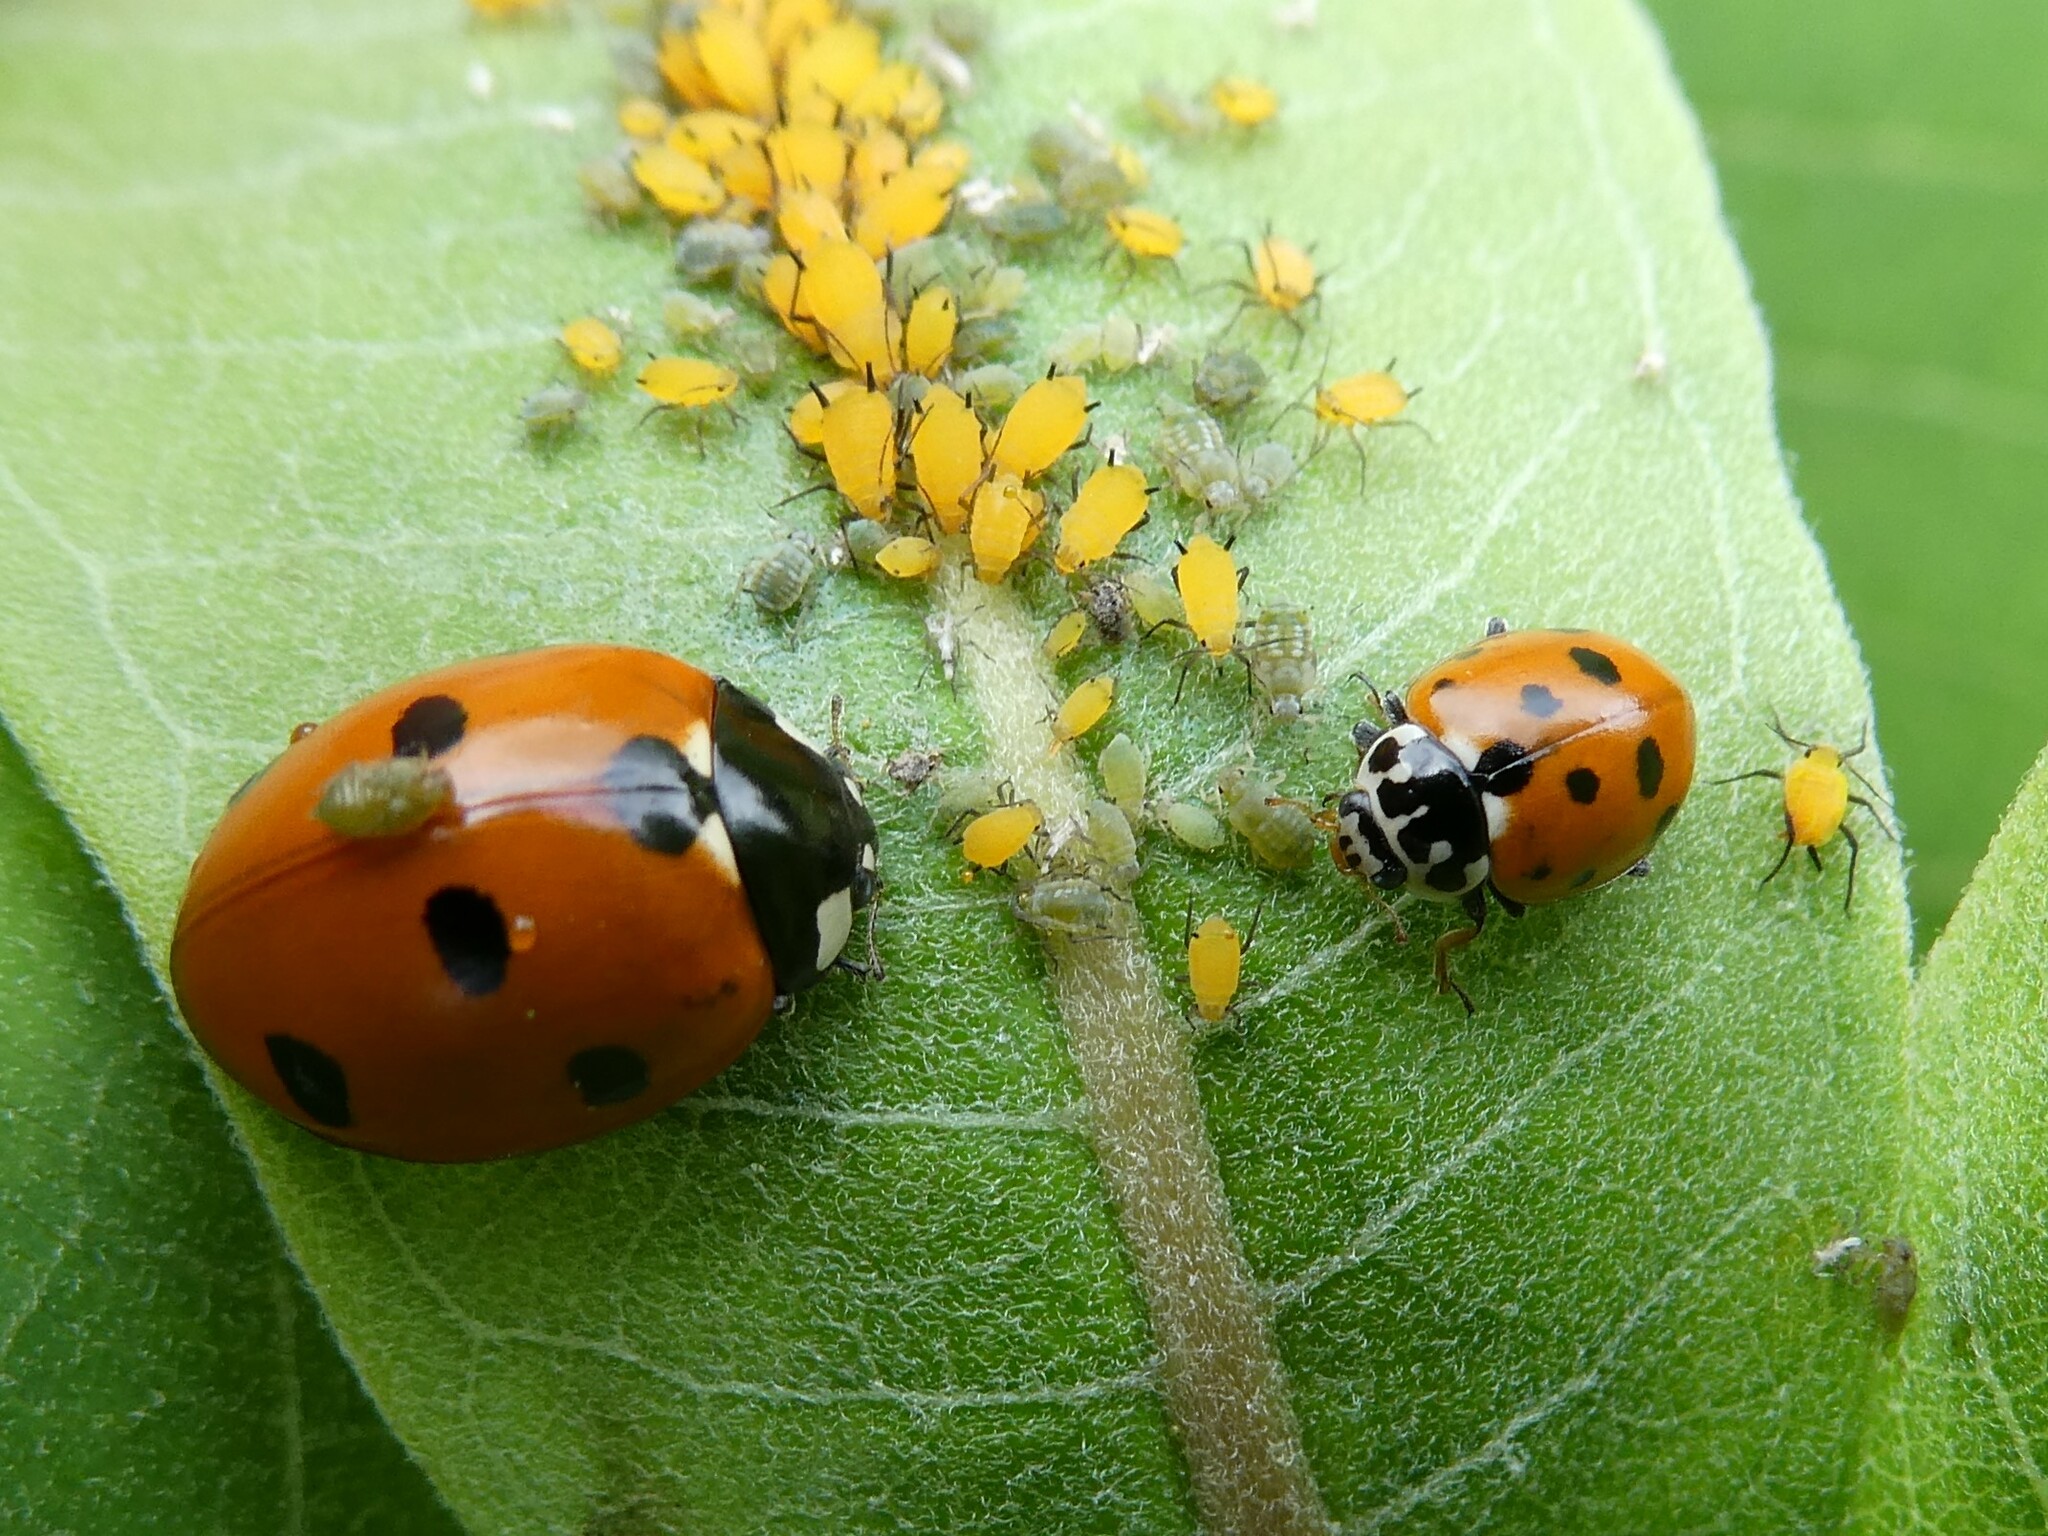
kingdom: Animalia
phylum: Arthropoda
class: Insecta
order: Coleoptera
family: Coccinellidae
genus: Hippodamia
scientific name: Hippodamia variegata
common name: Ladybird beetle
